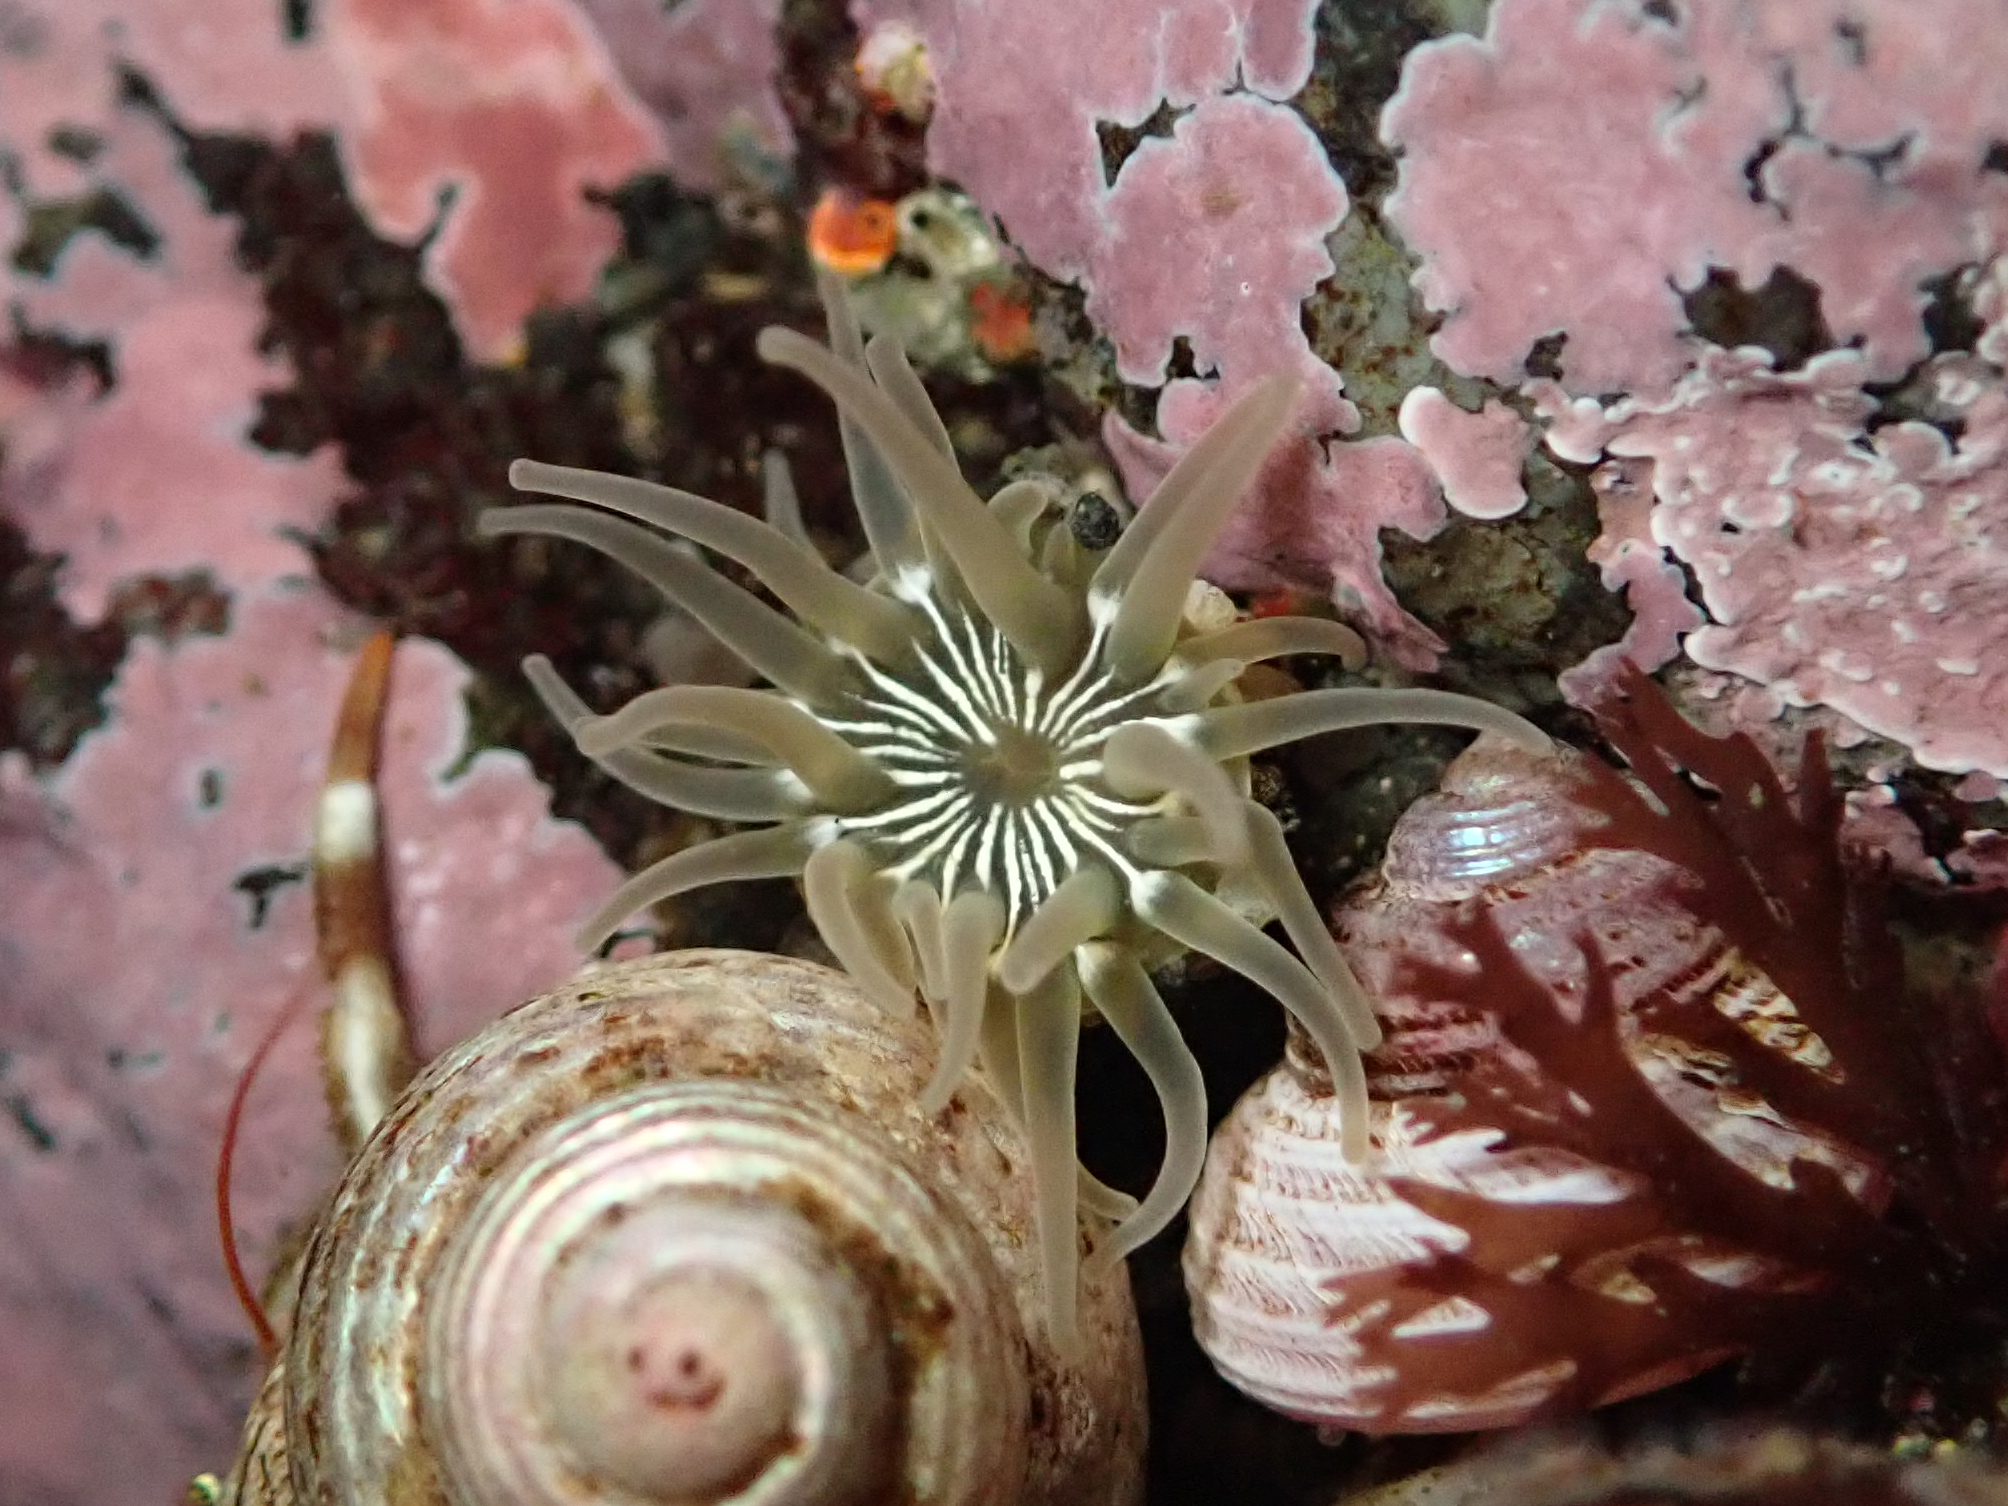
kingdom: Animalia
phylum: Cnidaria
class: Anthozoa
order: Actiniaria
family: Actiniidae
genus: Aulactinia
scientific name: Aulactinia incubans
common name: Incubating anemone
